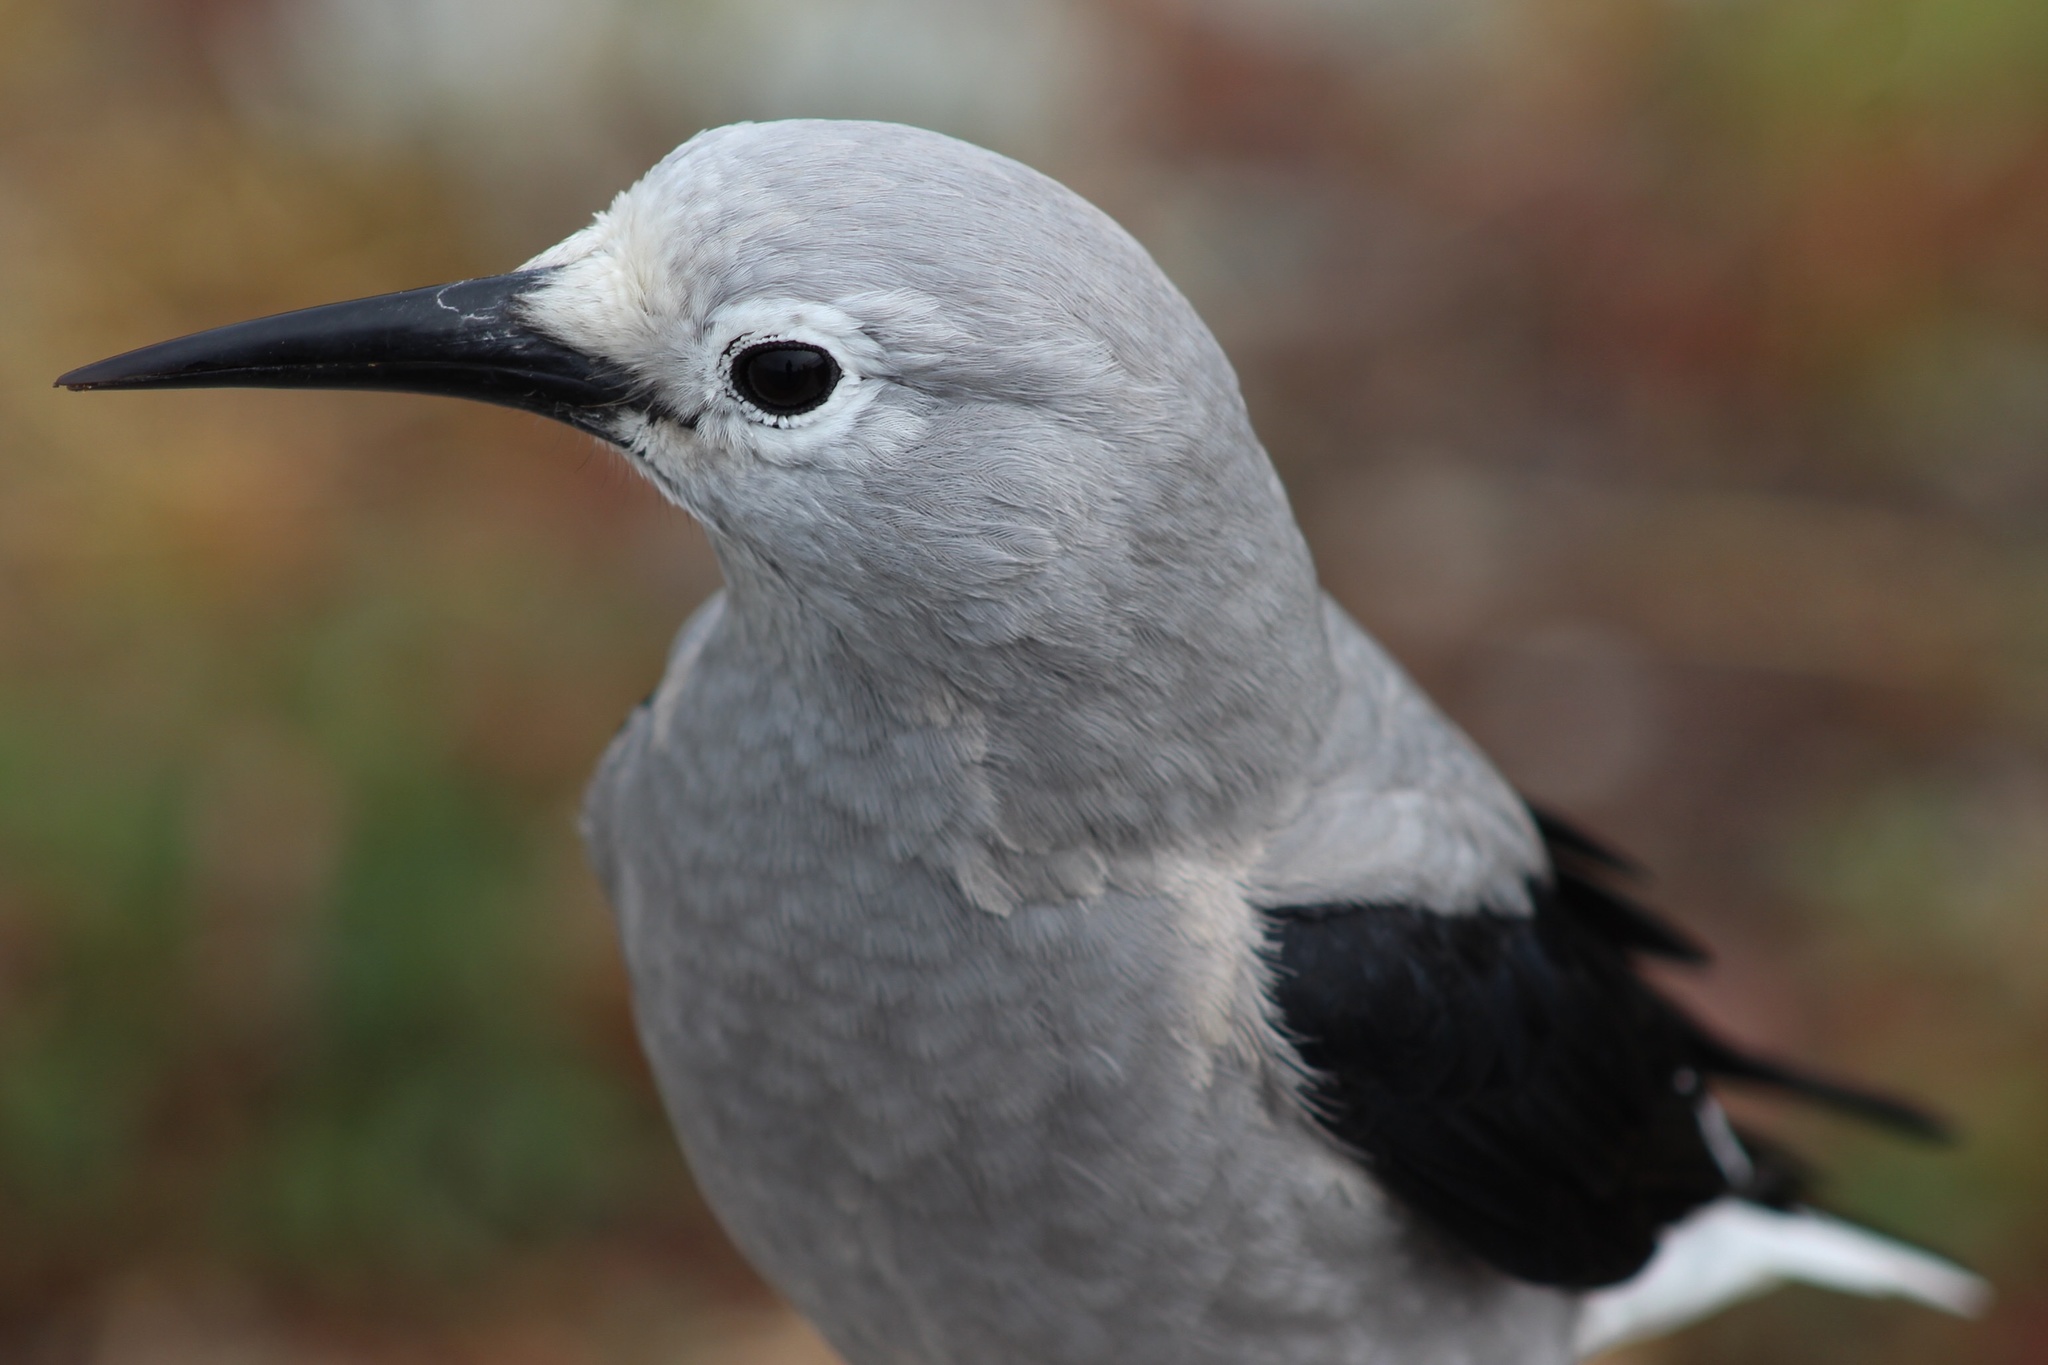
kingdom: Animalia
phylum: Chordata
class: Aves
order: Passeriformes
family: Corvidae
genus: Nucifraga
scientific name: Nucifraga columbiana
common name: Clark's nutcracker
